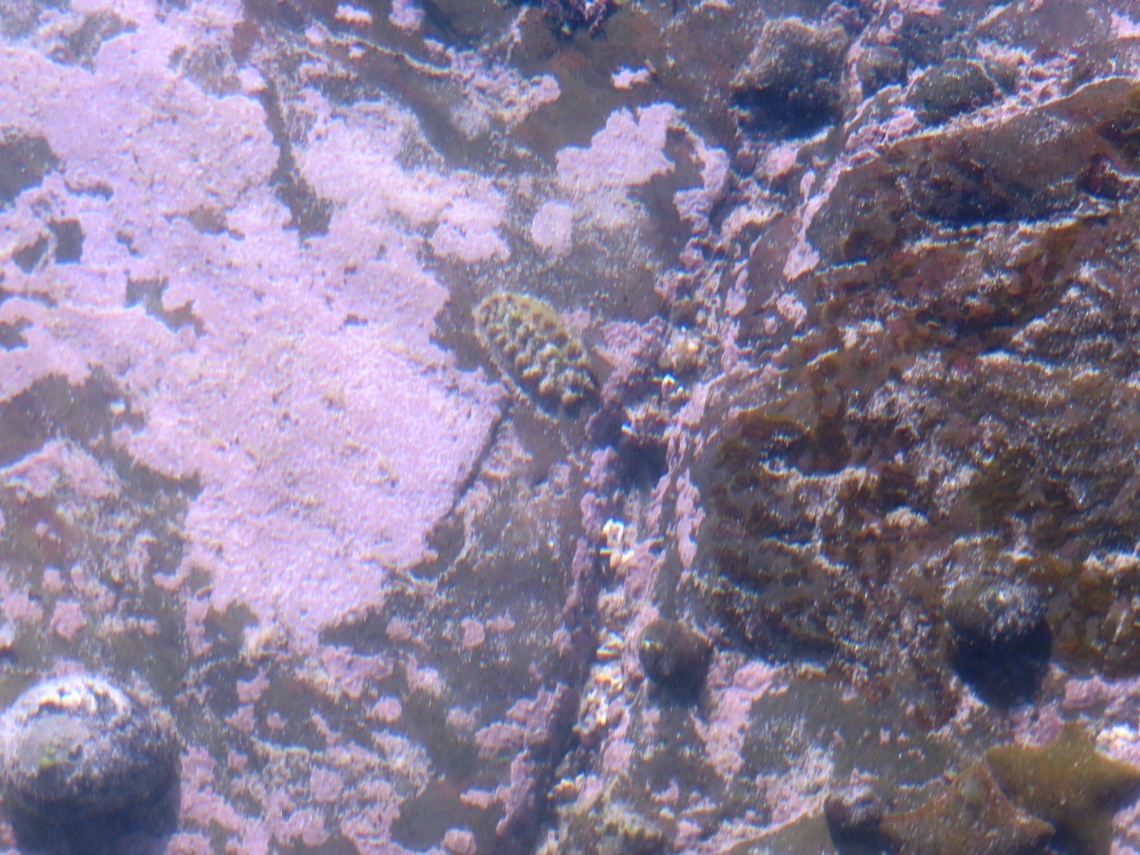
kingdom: Animalia
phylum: Mollusca
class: Polyplacophora
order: Chitonida
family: Acanthochitonidae
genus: Acanthochitona
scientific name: Acanthochitona garnoti
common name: Spiny chiton
